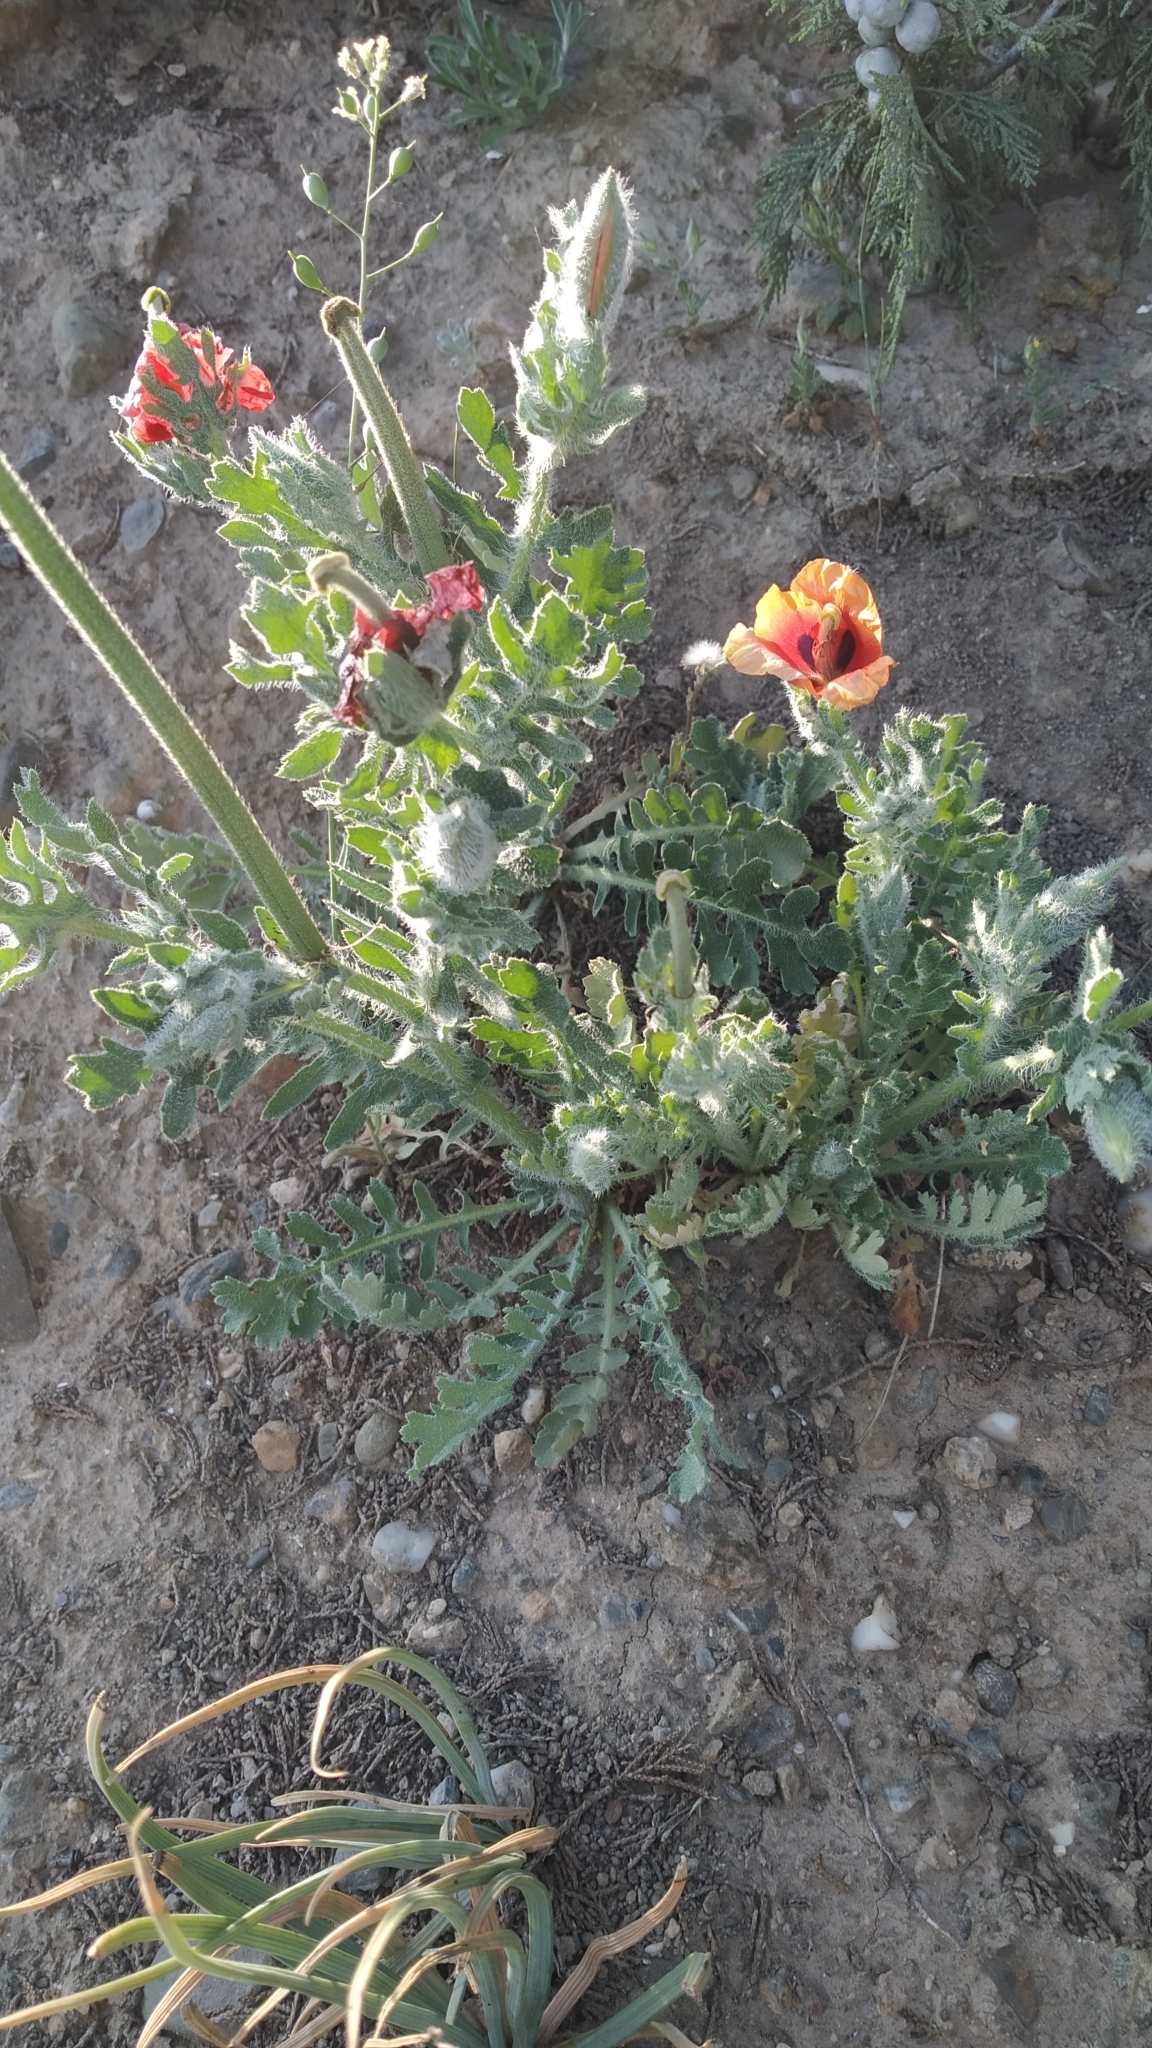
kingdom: Plantae
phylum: Tracheophyta
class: Magnoliopsida
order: Ranunculales
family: Papaveraceae
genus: Glaucium
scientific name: Glaucium corniculatum
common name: Red horned-poppy
